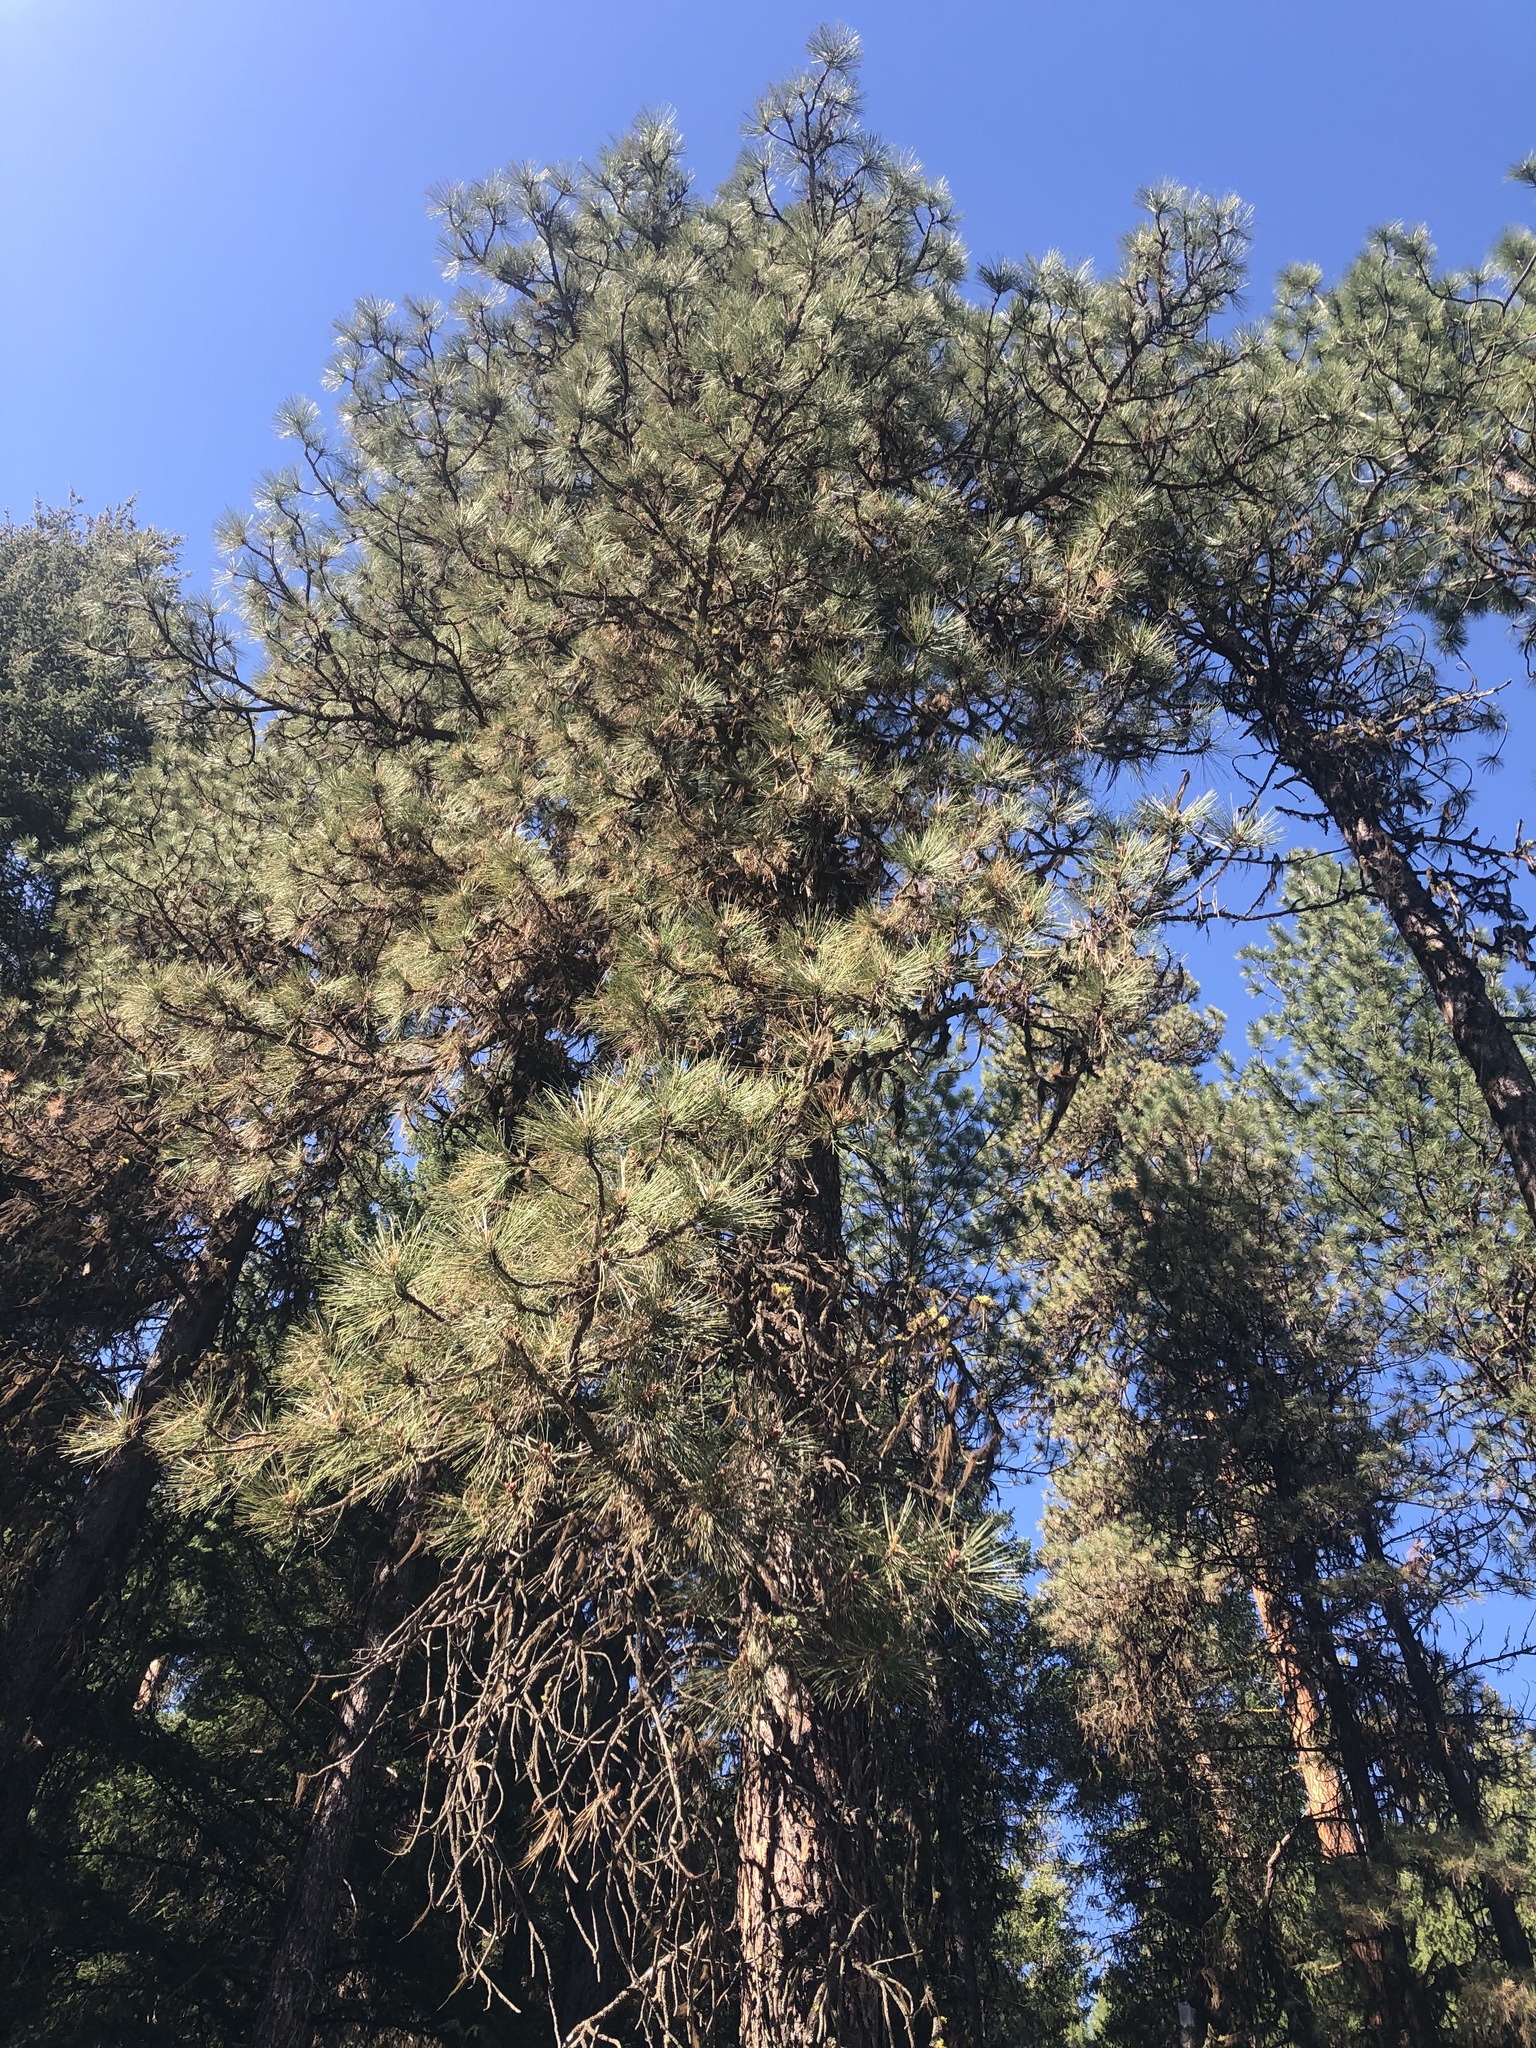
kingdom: Plantae
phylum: Tracheophyta
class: Pinopsida
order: Pinales
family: Pinaceae
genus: Pinus
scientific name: Pinus ponderosa
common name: Western yellow-pine
